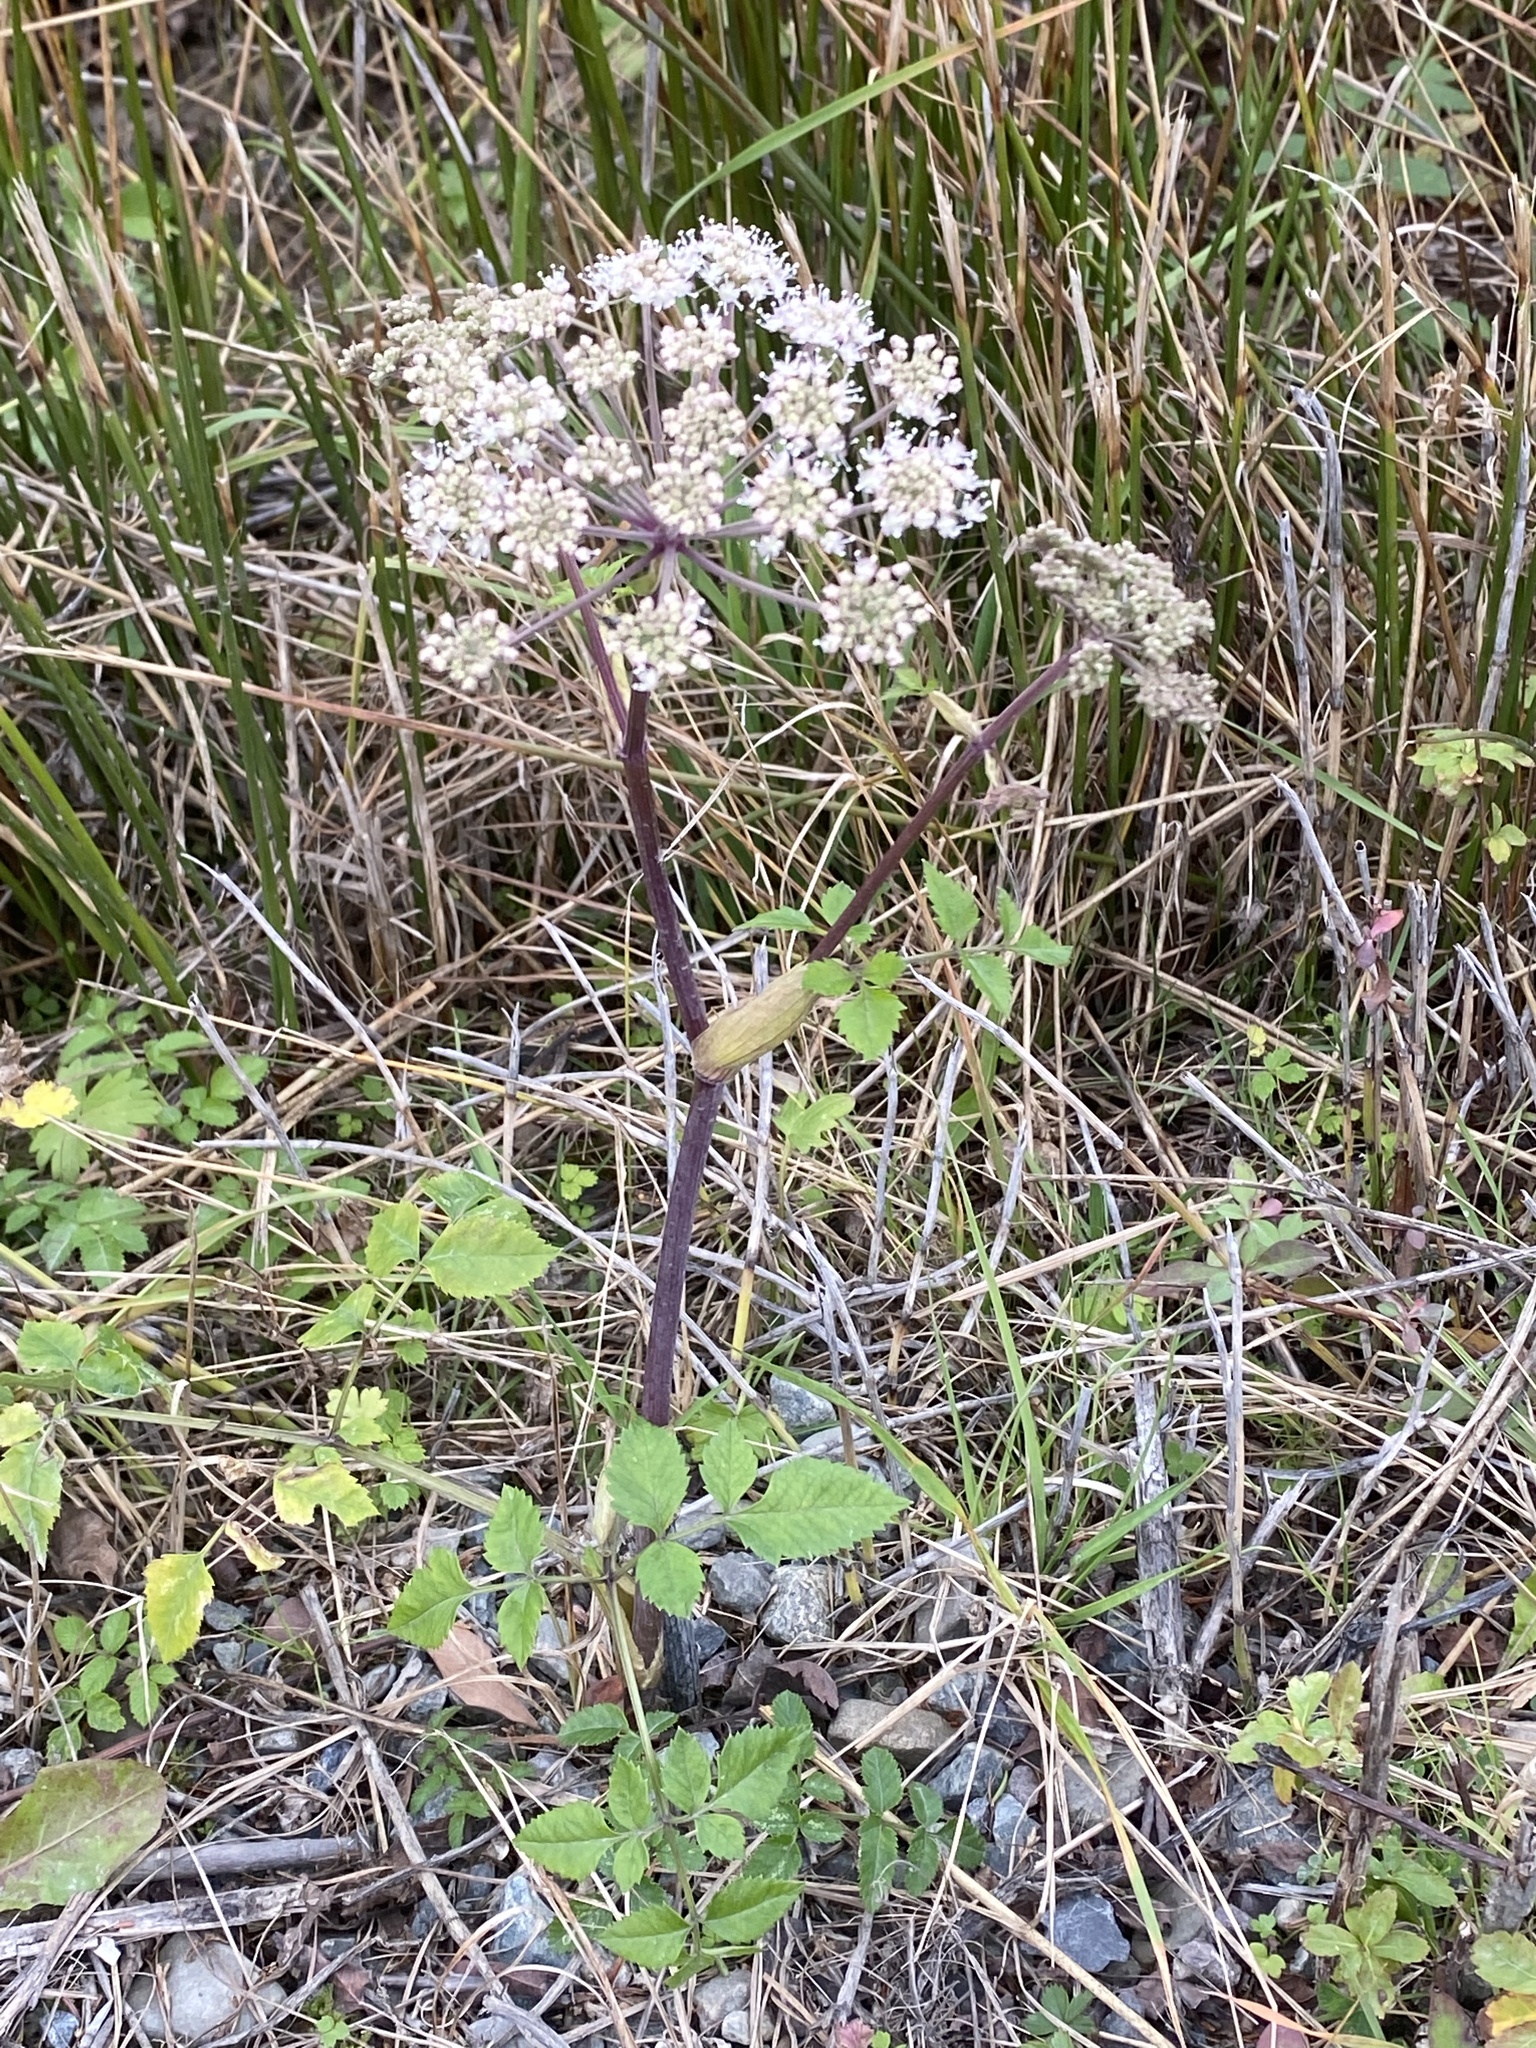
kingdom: Plantae
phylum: Tracheophyta
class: Magnoliopsida
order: Apiales
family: Apiaceae
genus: Angelica
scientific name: Angelica sylvestris
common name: Wild angelica
